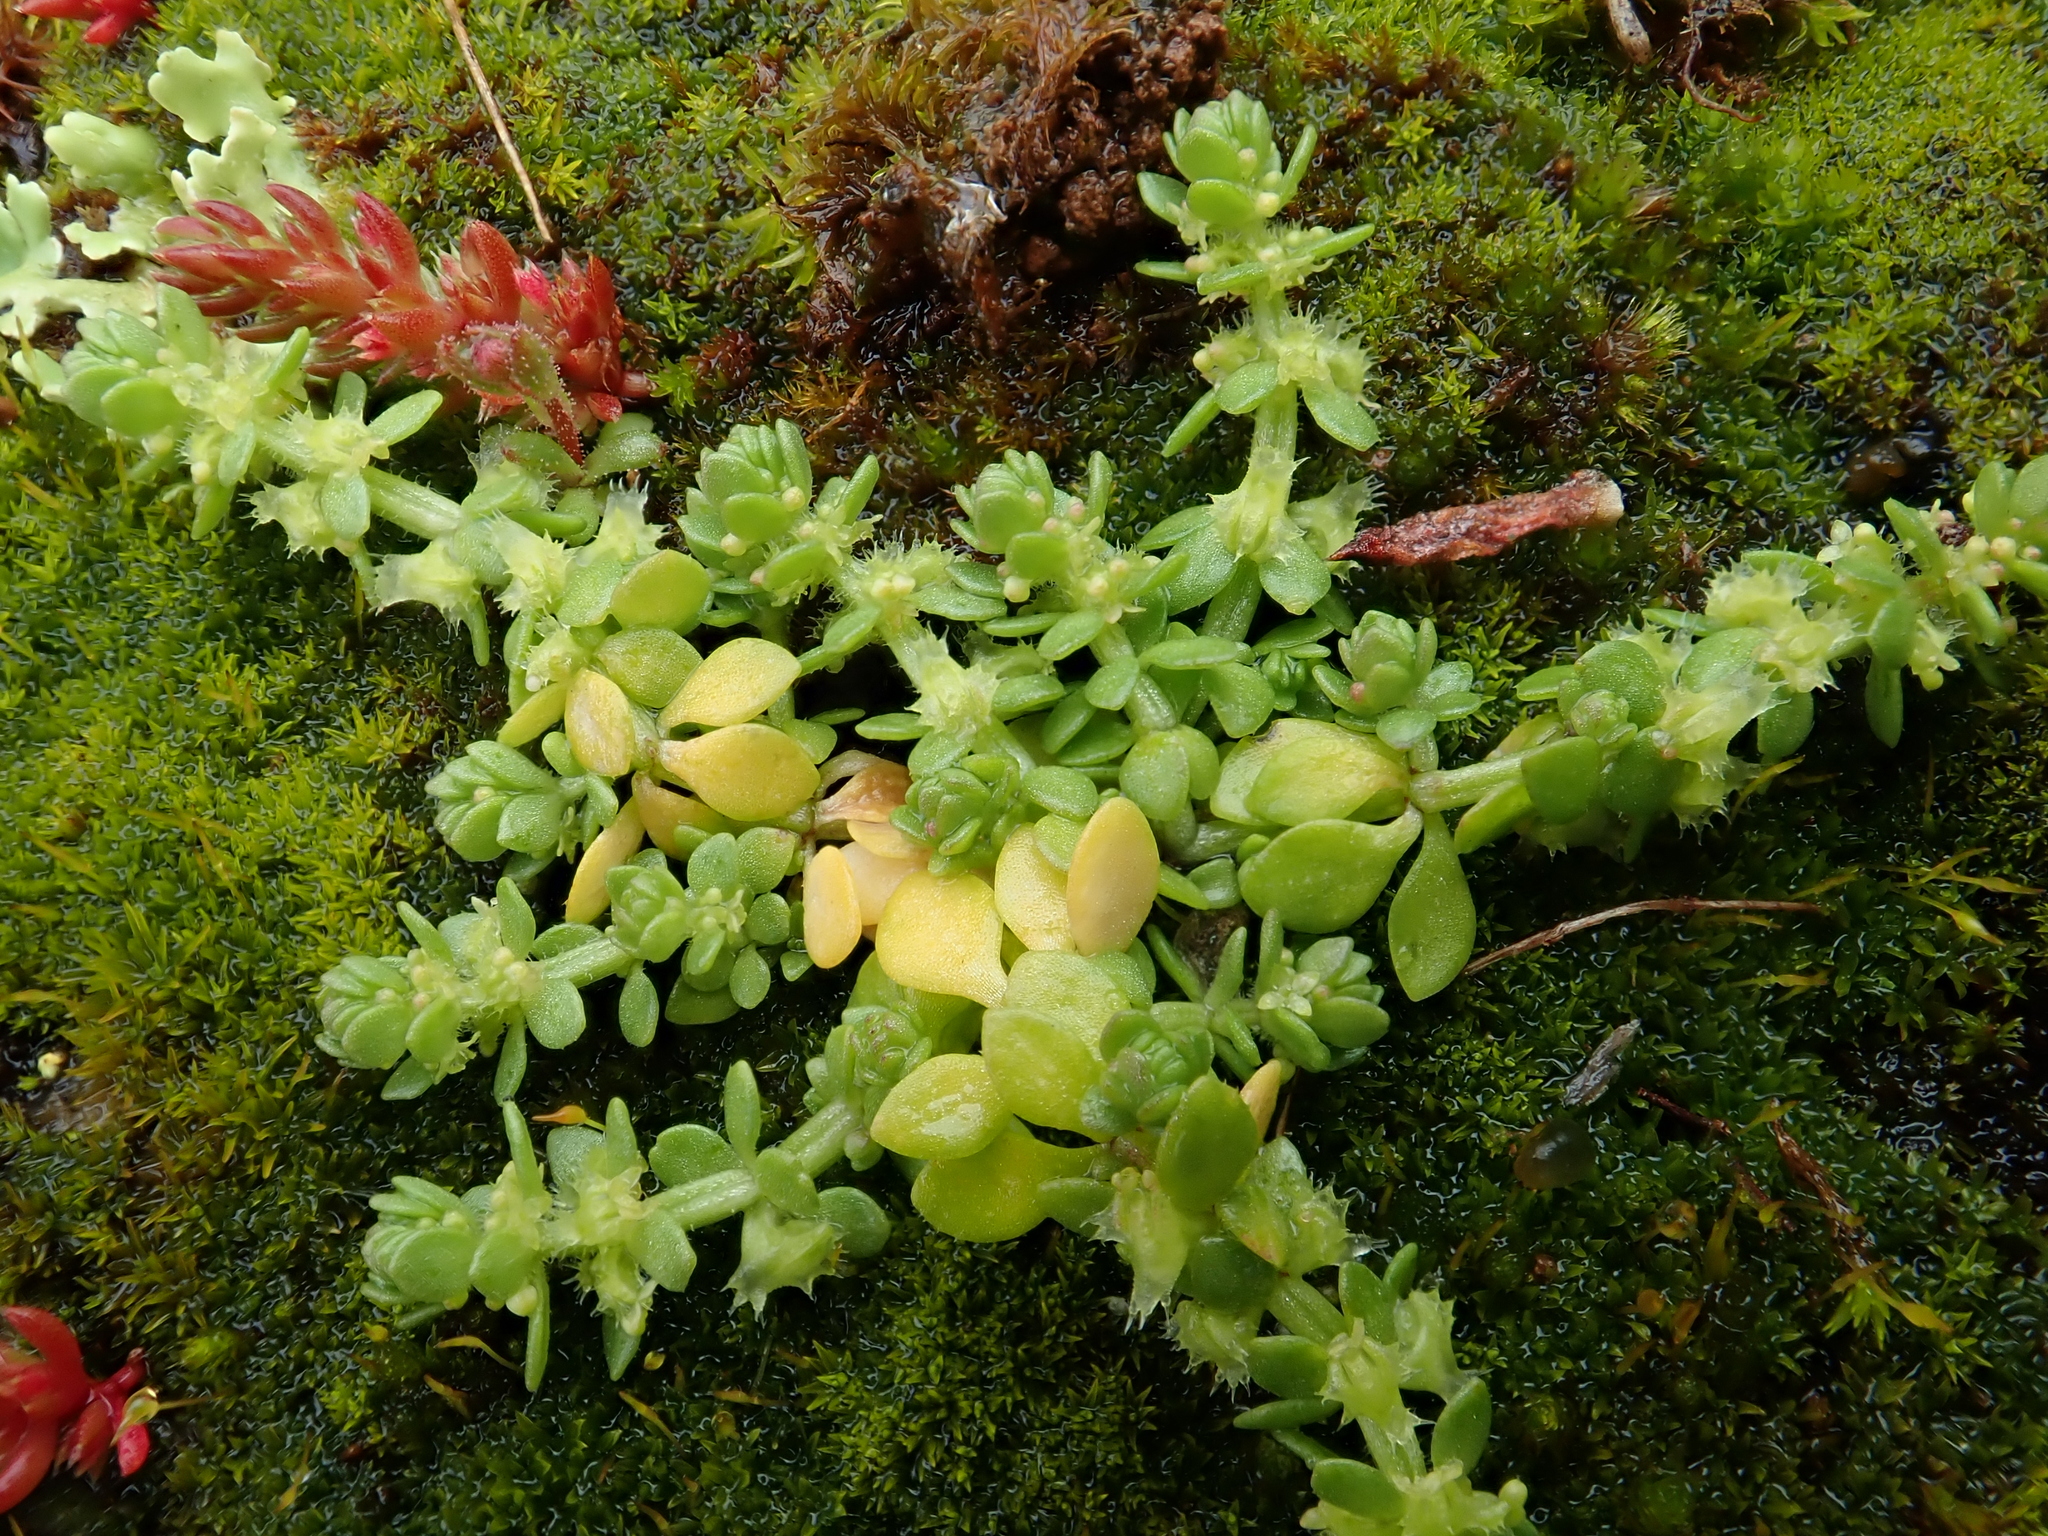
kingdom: Plantae
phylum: Tracheophyta
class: Magnoliopsida
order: Gentianales
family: Rubiaceae
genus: Valantia
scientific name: Valantia muralis
